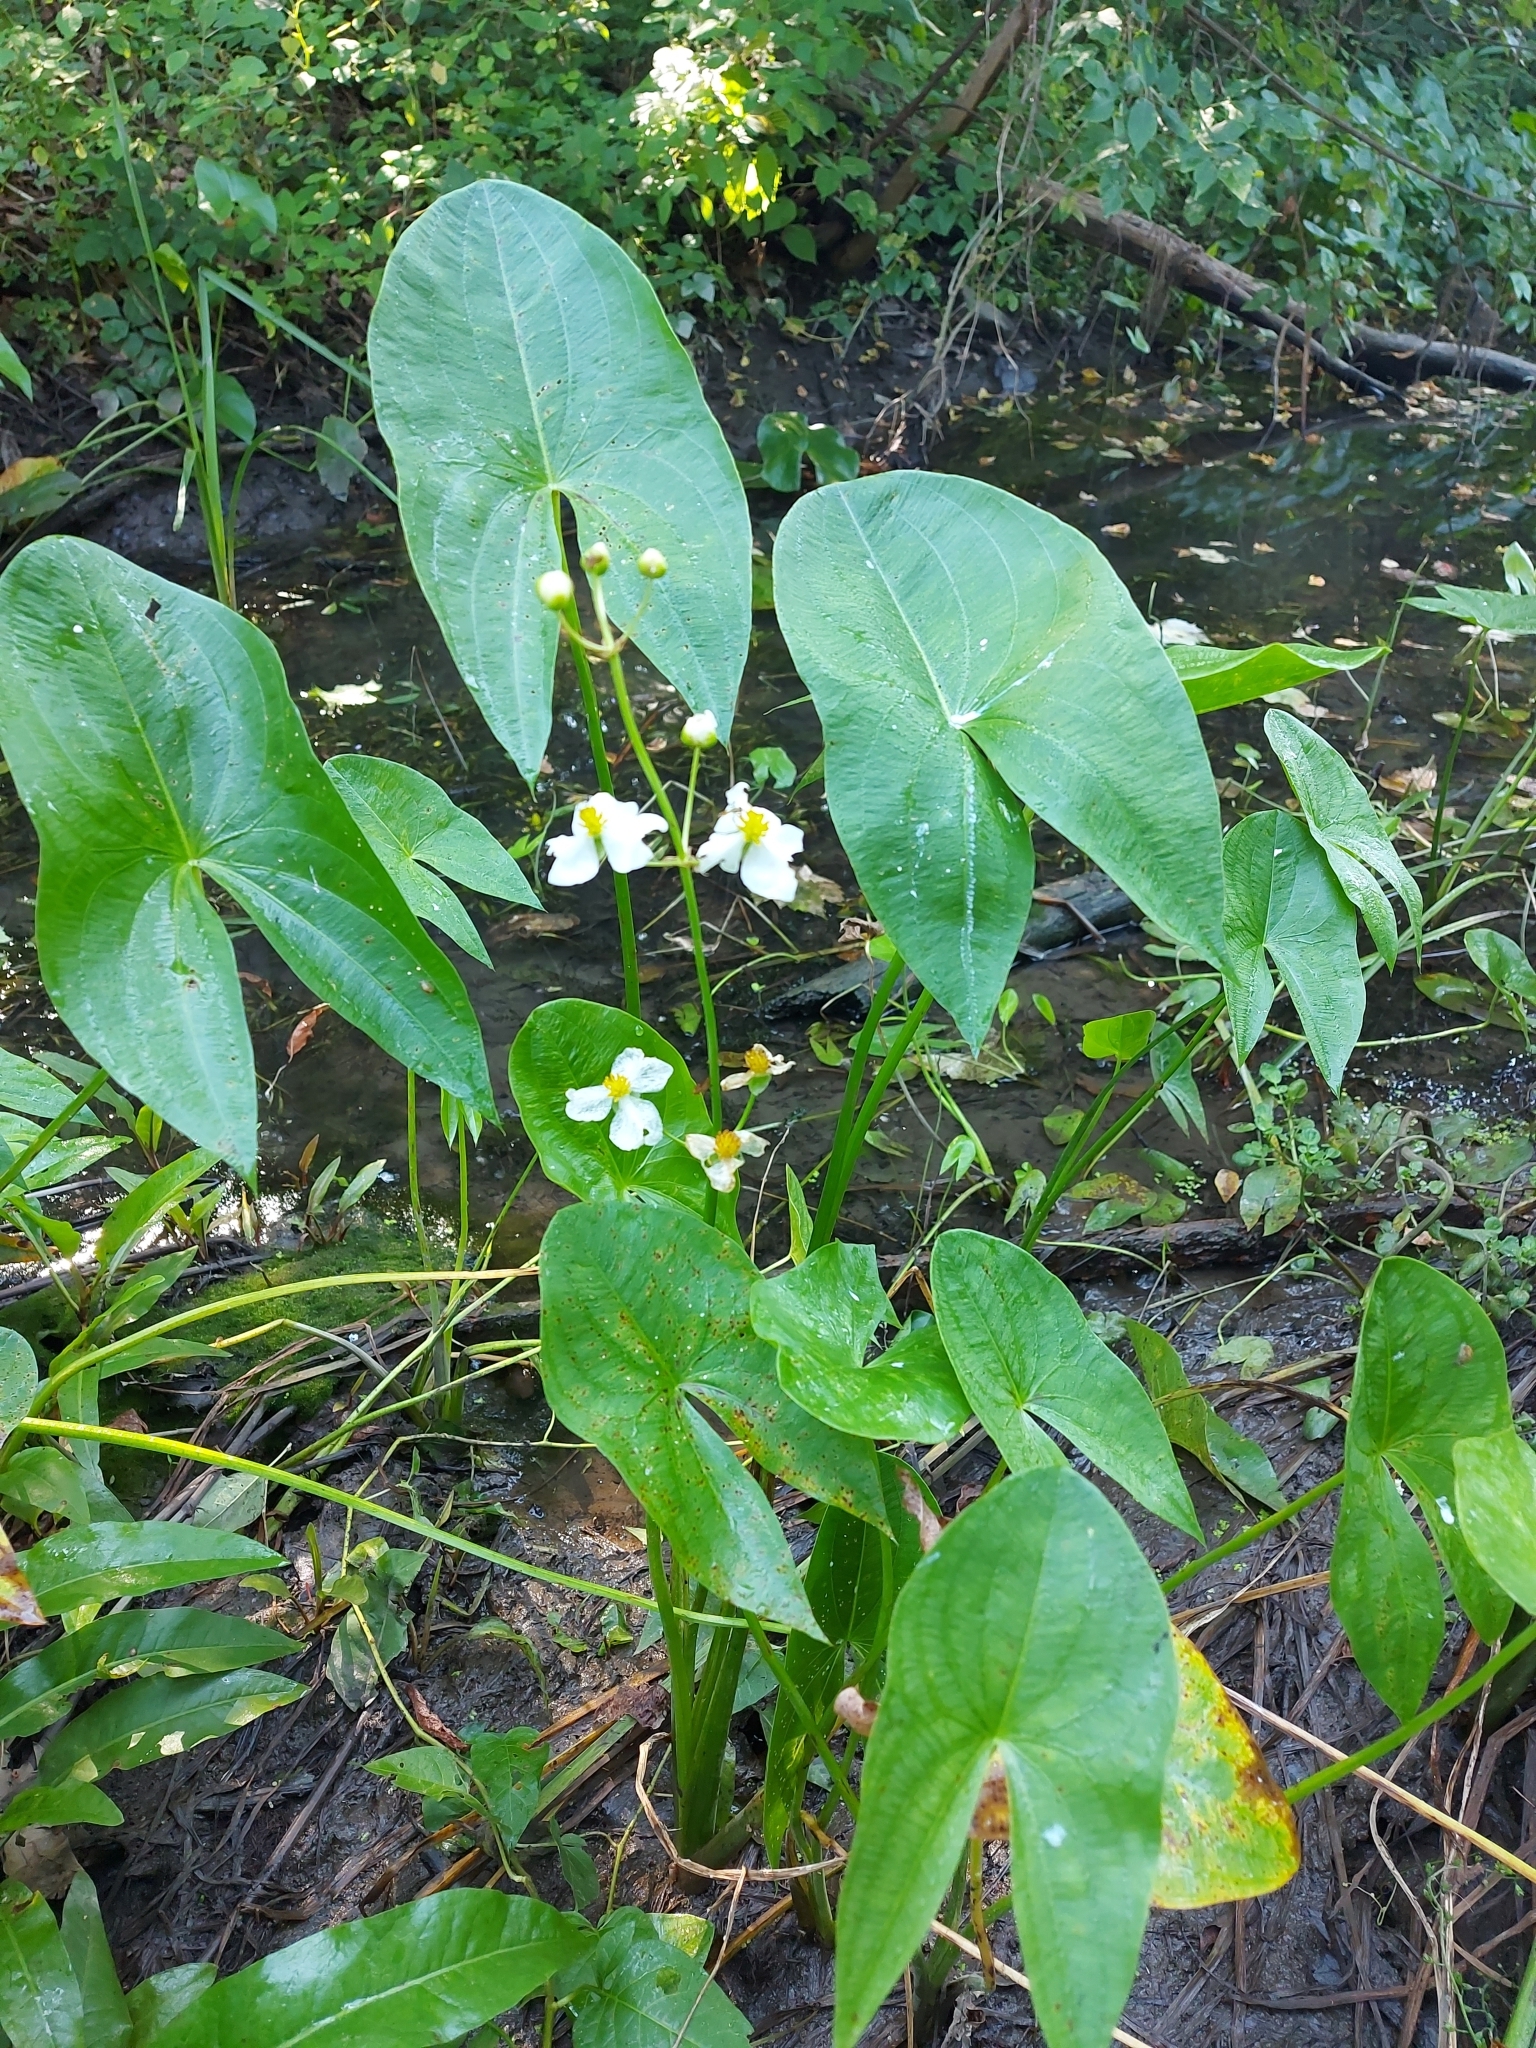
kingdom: Plantae
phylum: Tracheophyta
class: Liliopsida
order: Alismatales
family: Alismataceae
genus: Sagittaria
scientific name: Sagittaria latifolia
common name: Duck-potato
